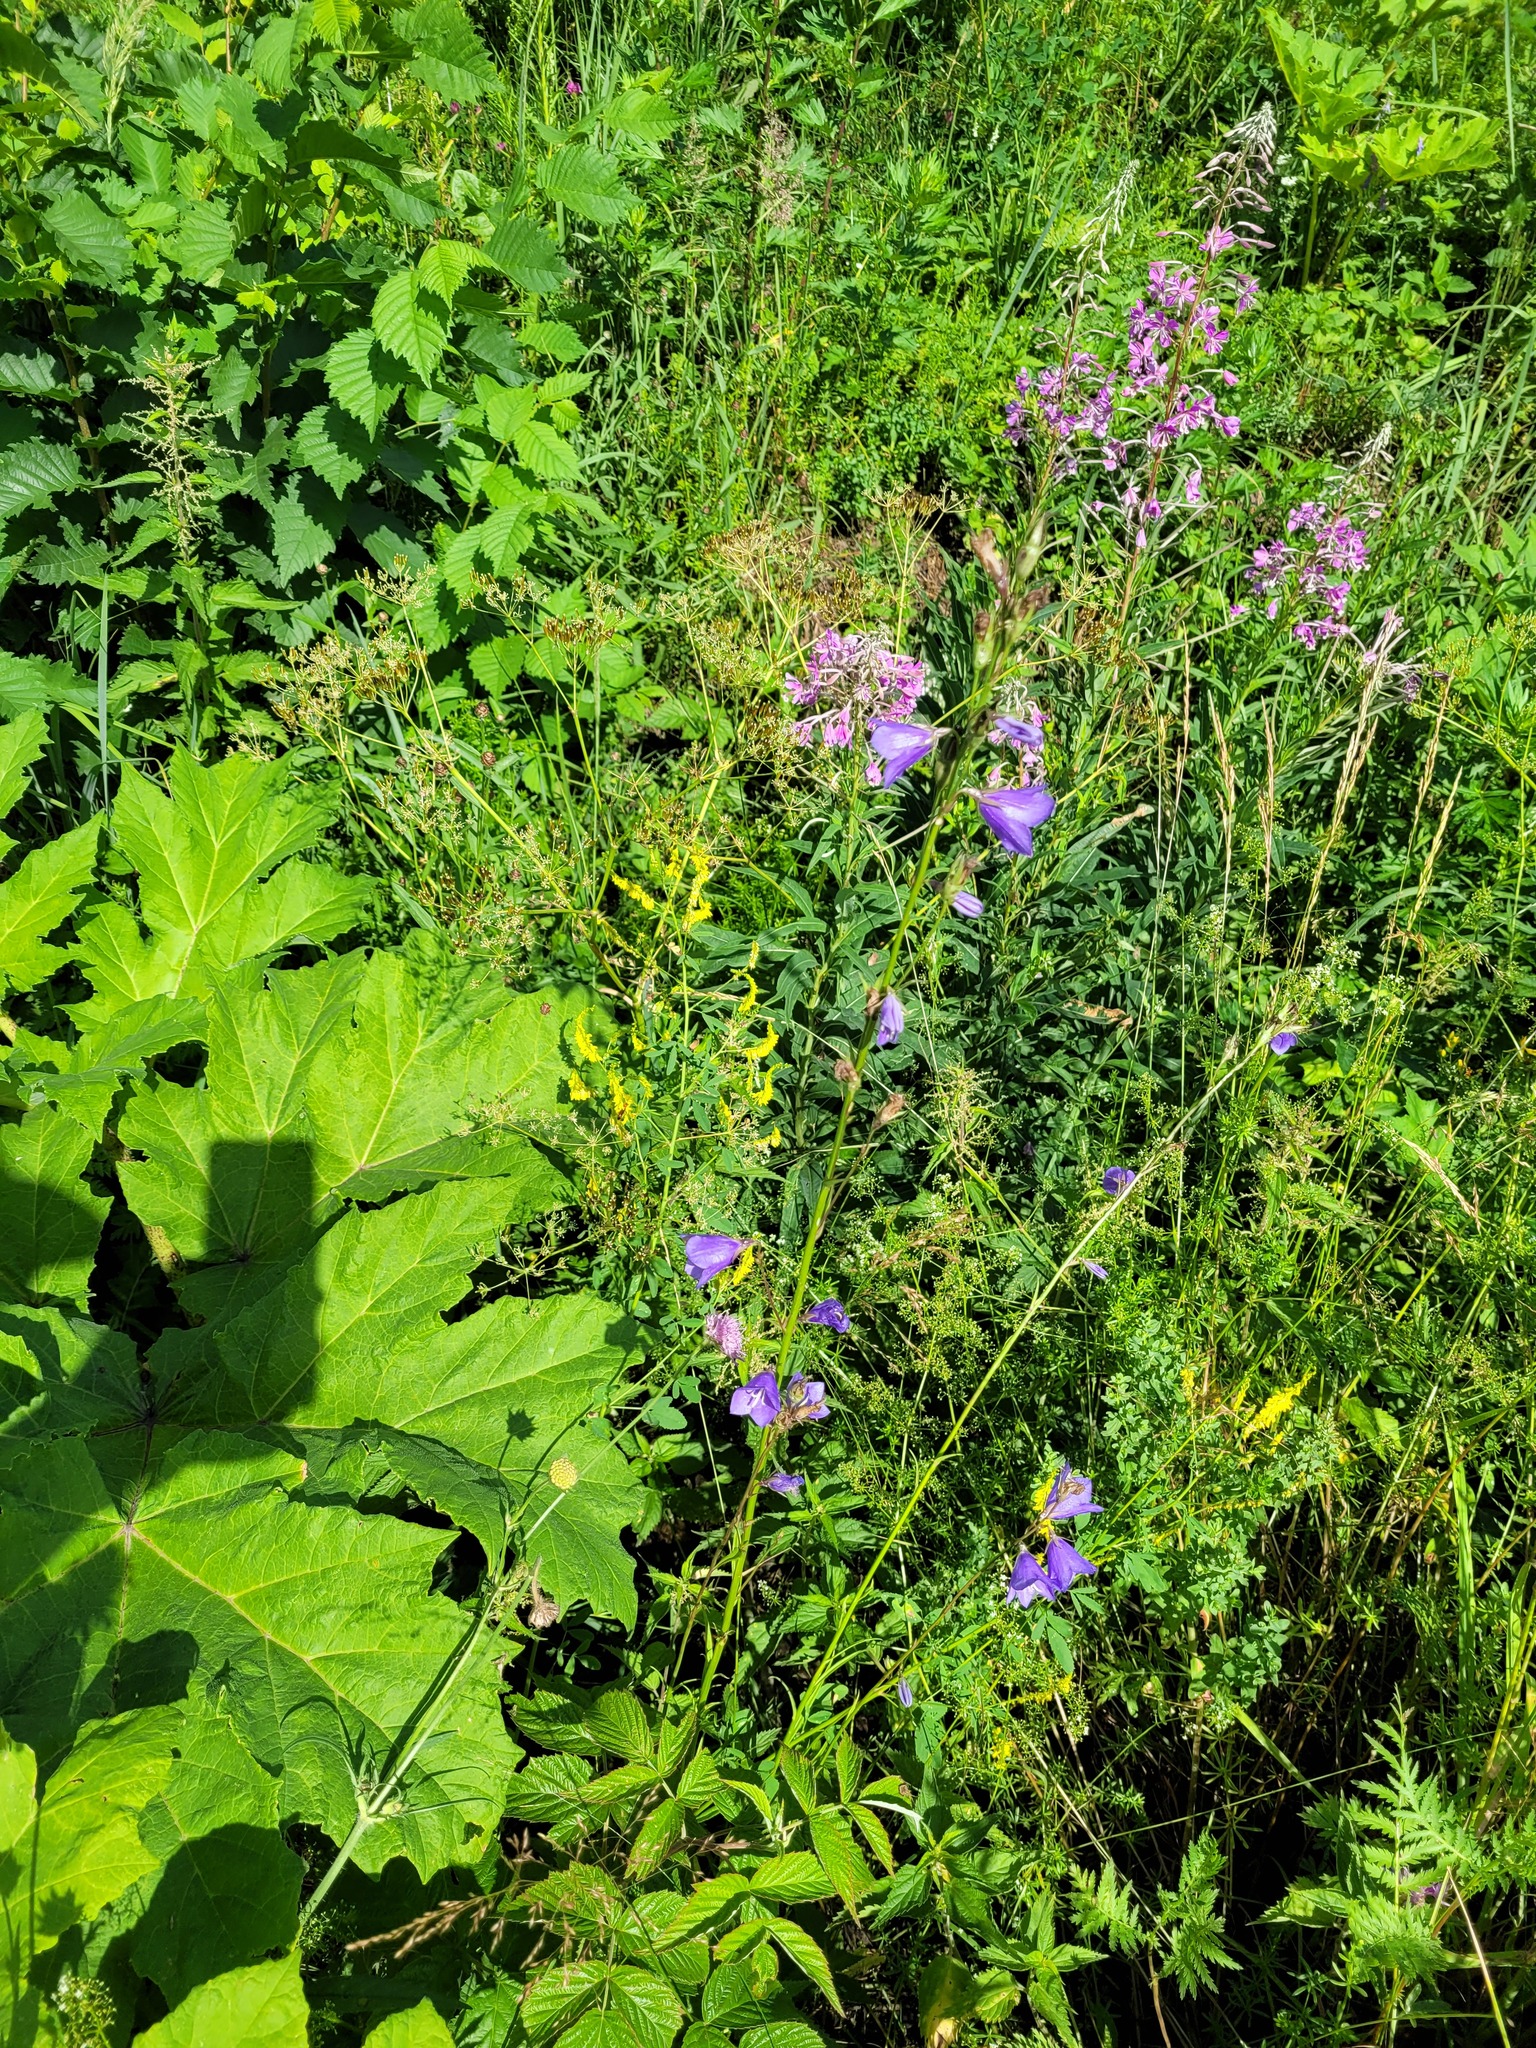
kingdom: Plantae
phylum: Tracheophyta
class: Magnoliopsida
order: Asterales
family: Campanulaceae
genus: Campanula
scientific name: Campanula persicifolia
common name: Peach-leaved bellflower
